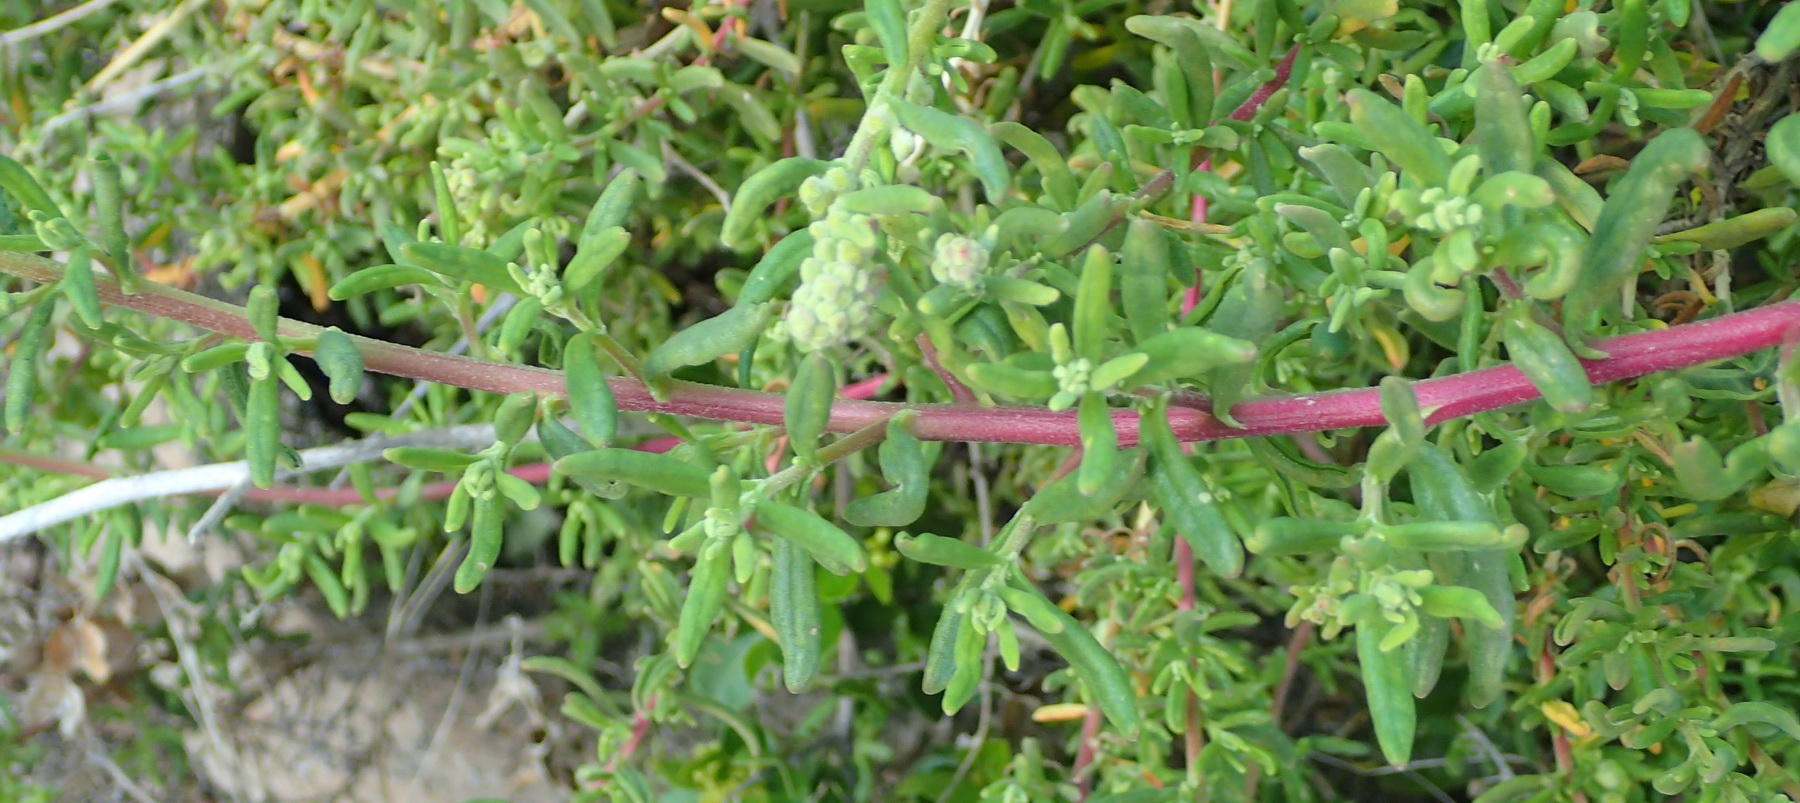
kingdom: Plantae
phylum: Tracheophyta
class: Magnoliopsida
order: Caryophyllales
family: Aizoaceae
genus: Tetragonia
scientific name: Tetragonia fruticosa
